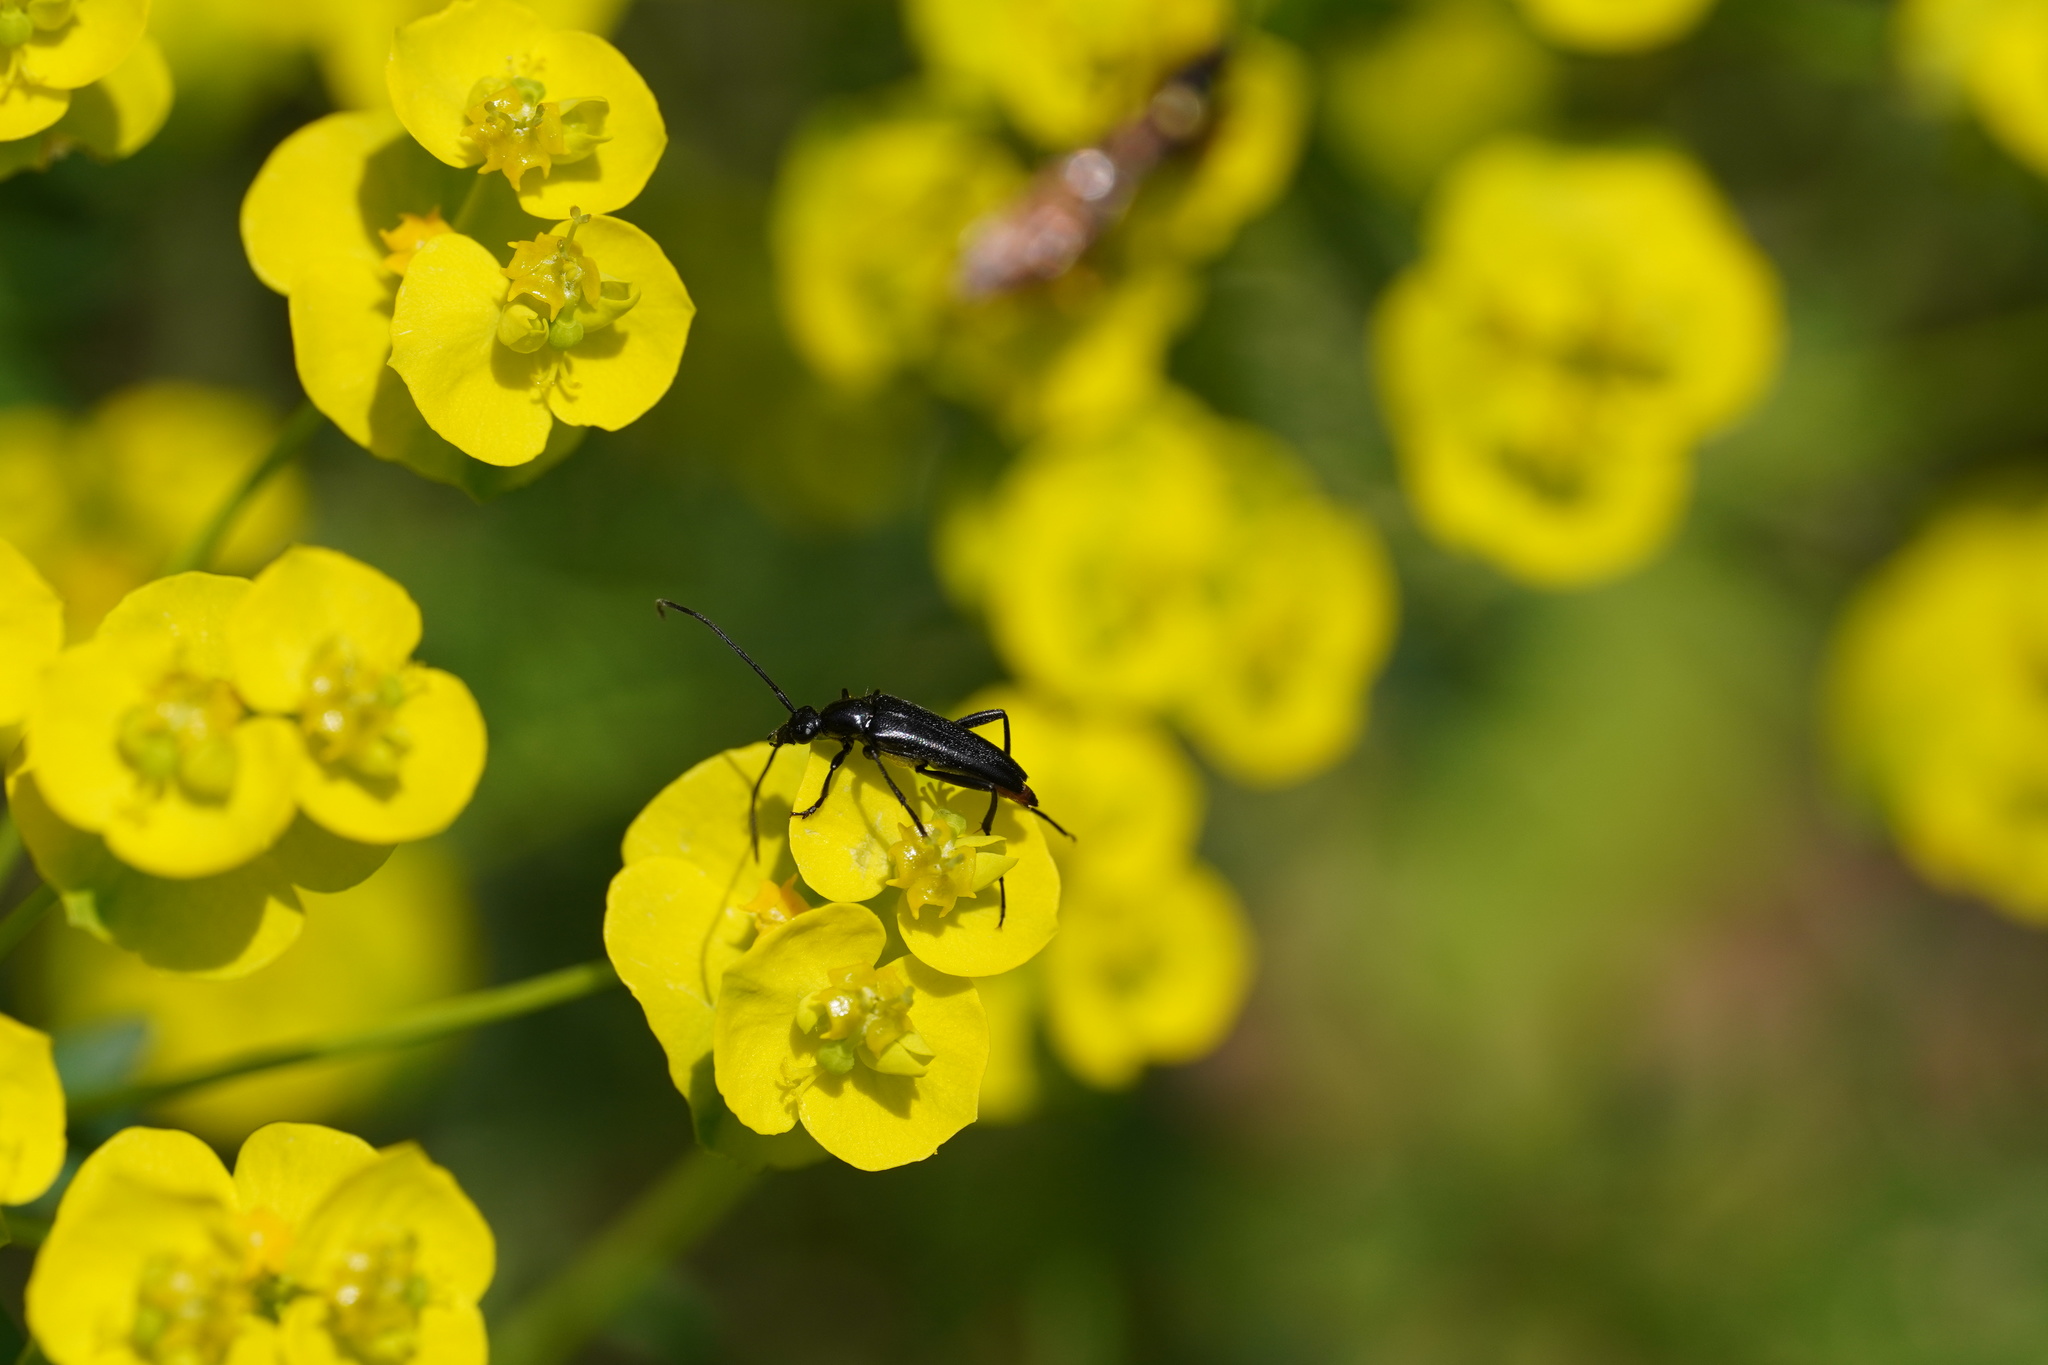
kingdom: Animalia
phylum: Arthropoda
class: Insecta
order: Coleoptera
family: Cerambycidae
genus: Stenurella
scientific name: Stenurella nigra
